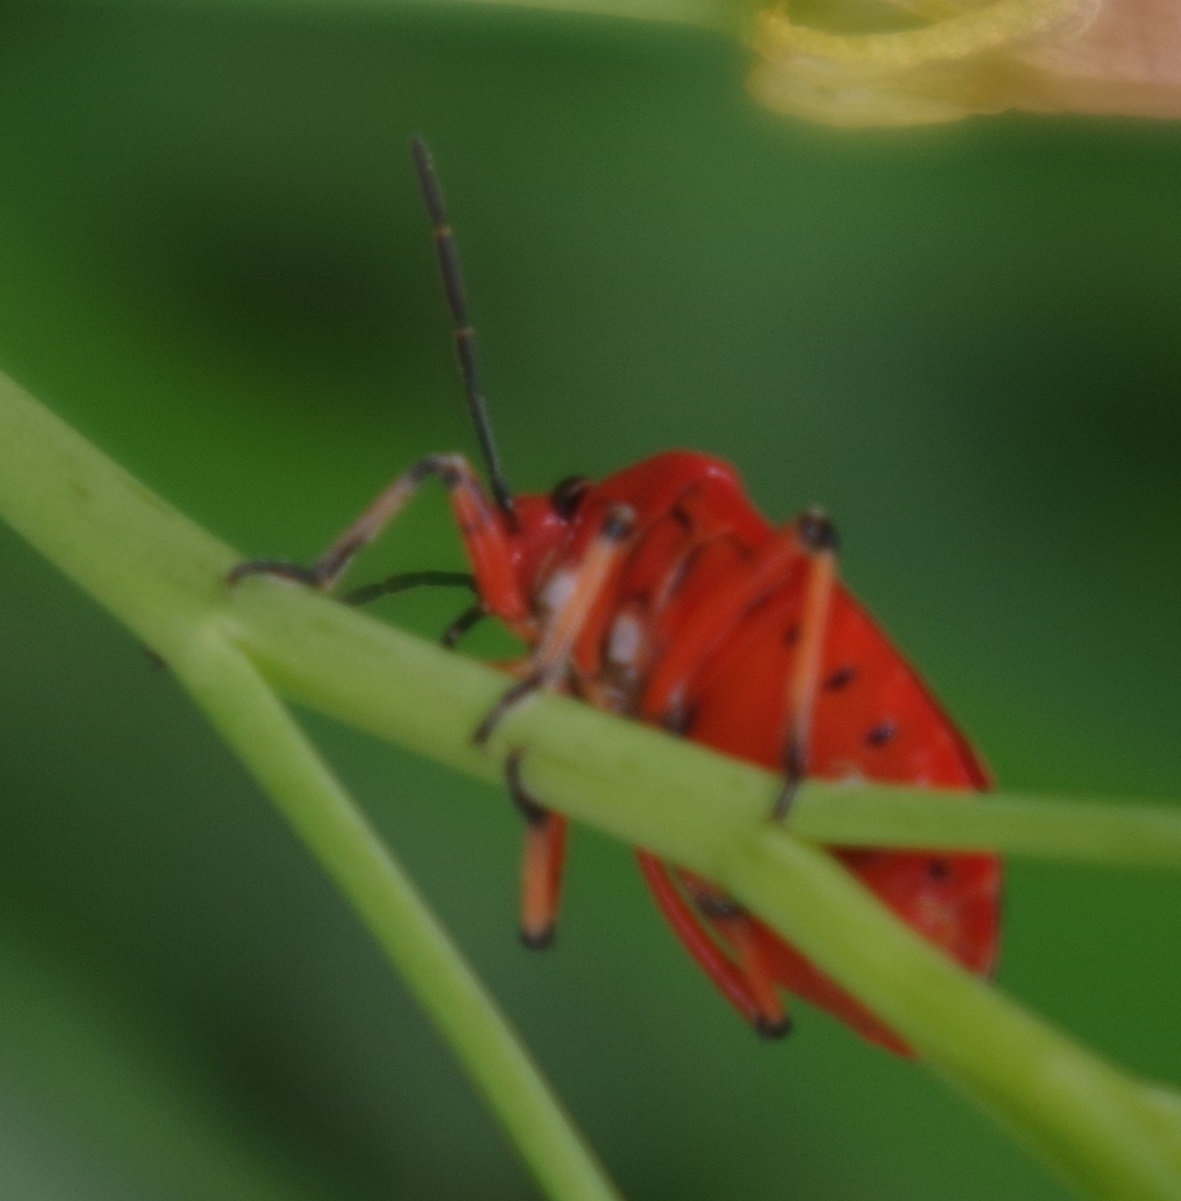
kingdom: Animalia
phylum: Arthropoda
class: Insecta
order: Hemiptera
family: Pentatomidae
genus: Eurydema
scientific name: Eurydema ornata
